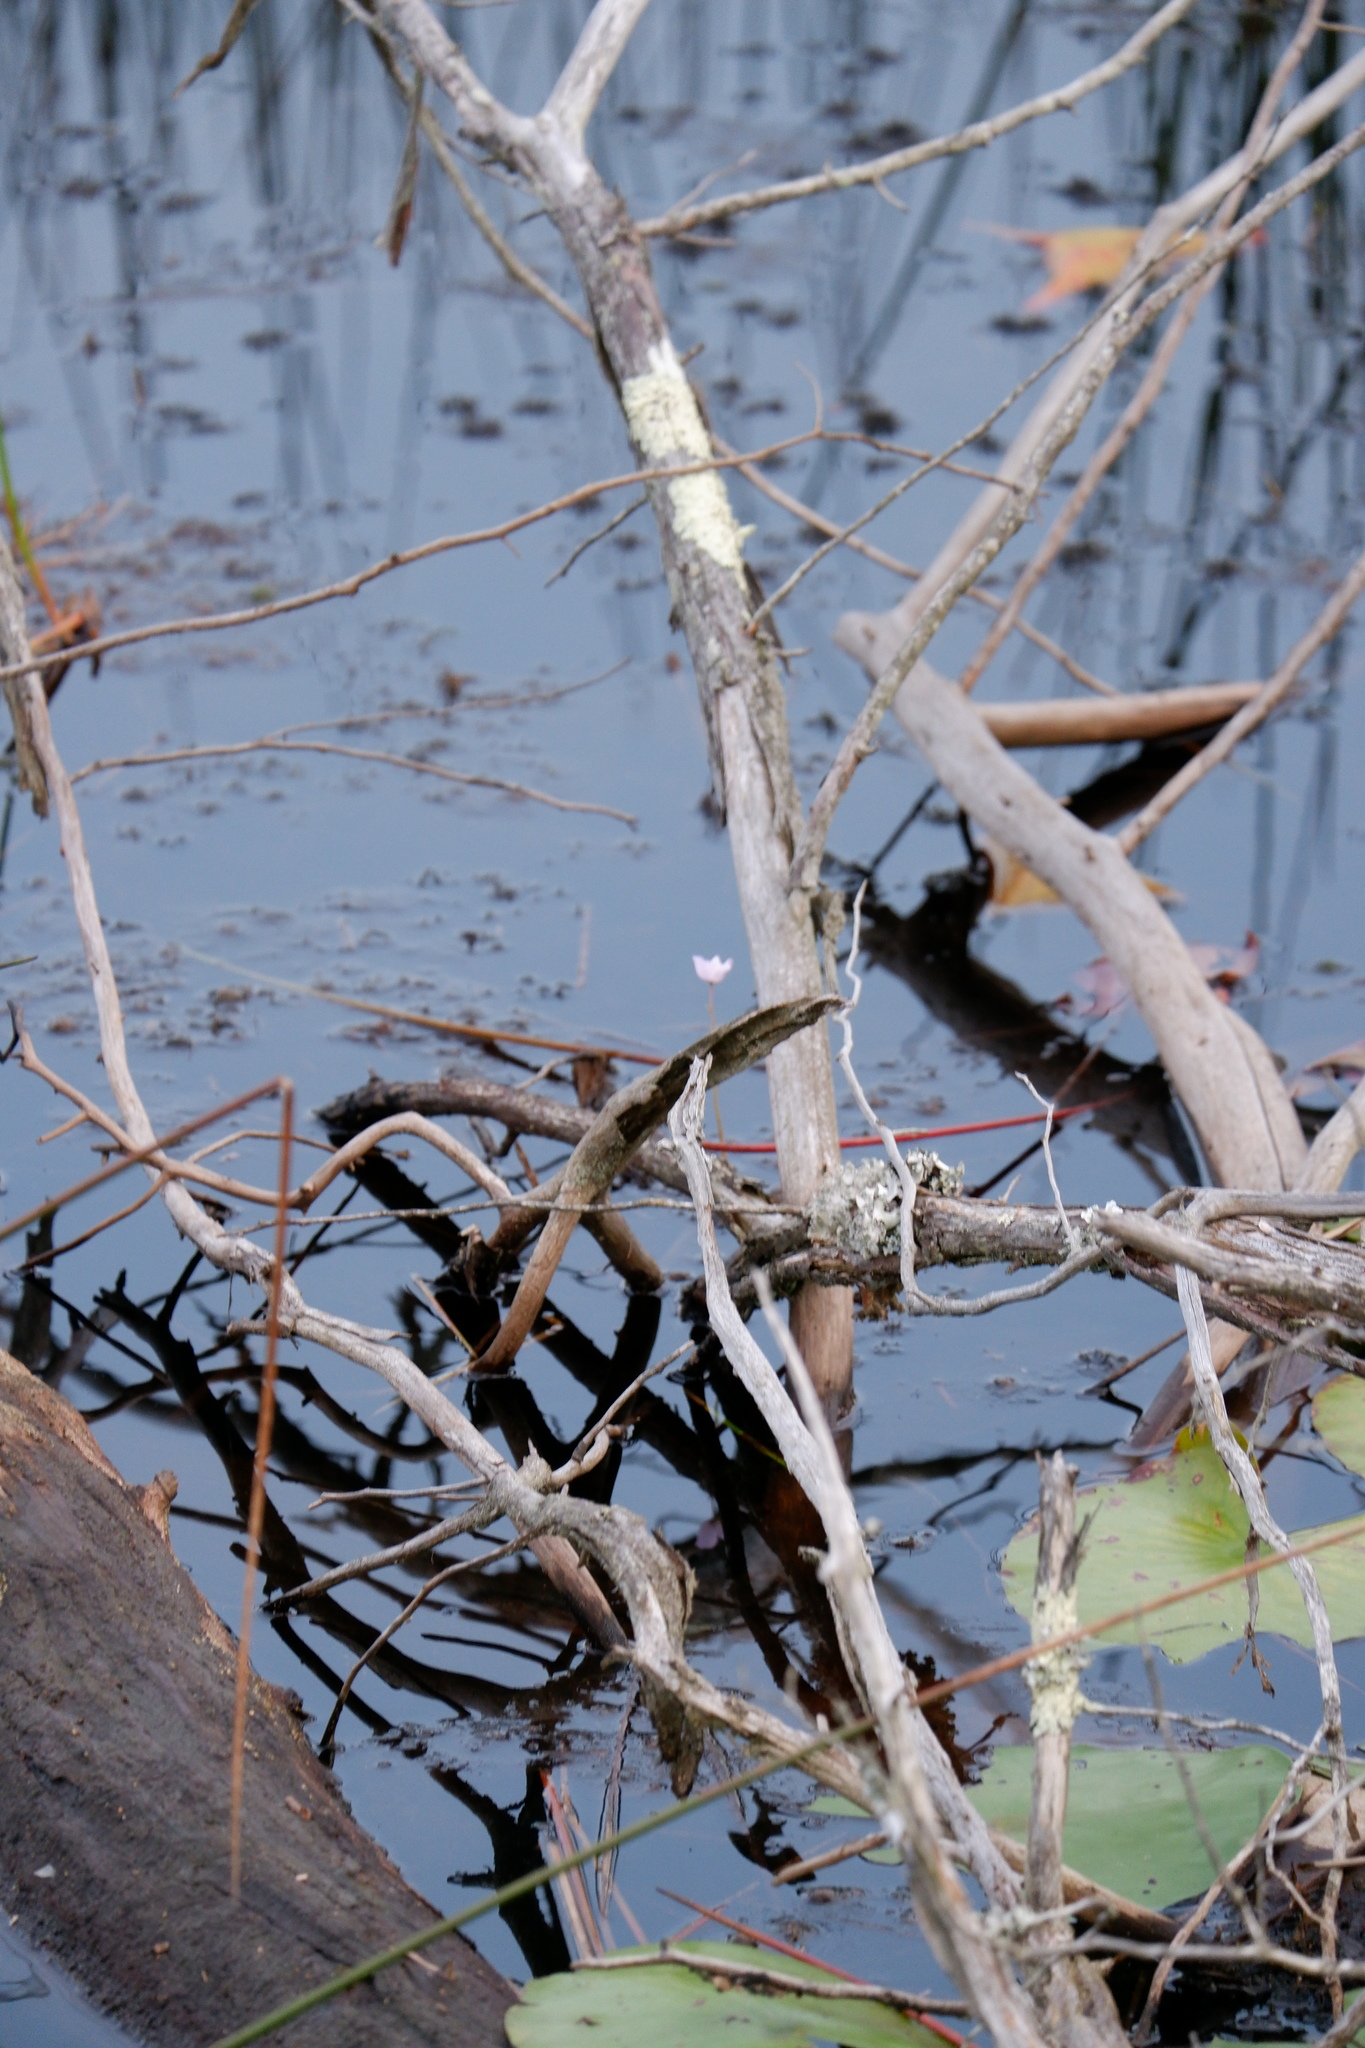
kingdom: Plantae
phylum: Tracheophyta
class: Magnoliopsida
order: Lamiales
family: Lentibulariaceae
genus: Utricularia
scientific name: Utricularia purpurea
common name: Eastern purple bladderwort
